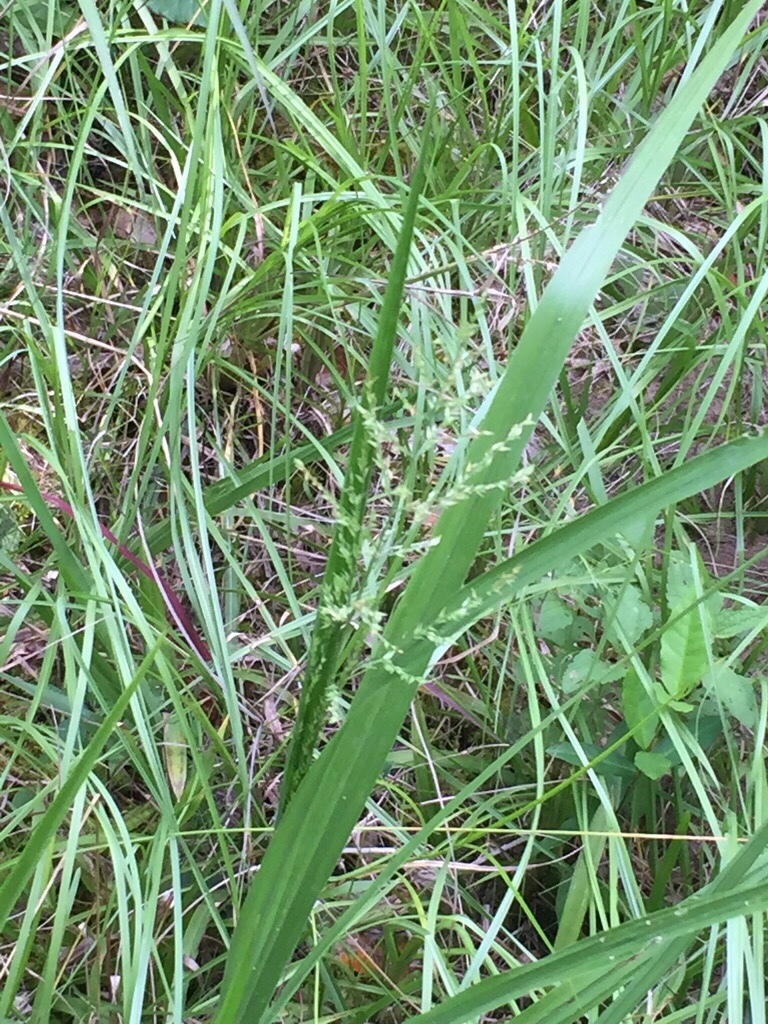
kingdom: Plantae
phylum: Tracheophyta
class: Liliopsida
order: Poales
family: Poaceae
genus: Coleataenia
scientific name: Coleataenia anceps
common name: Beaked panic grass
